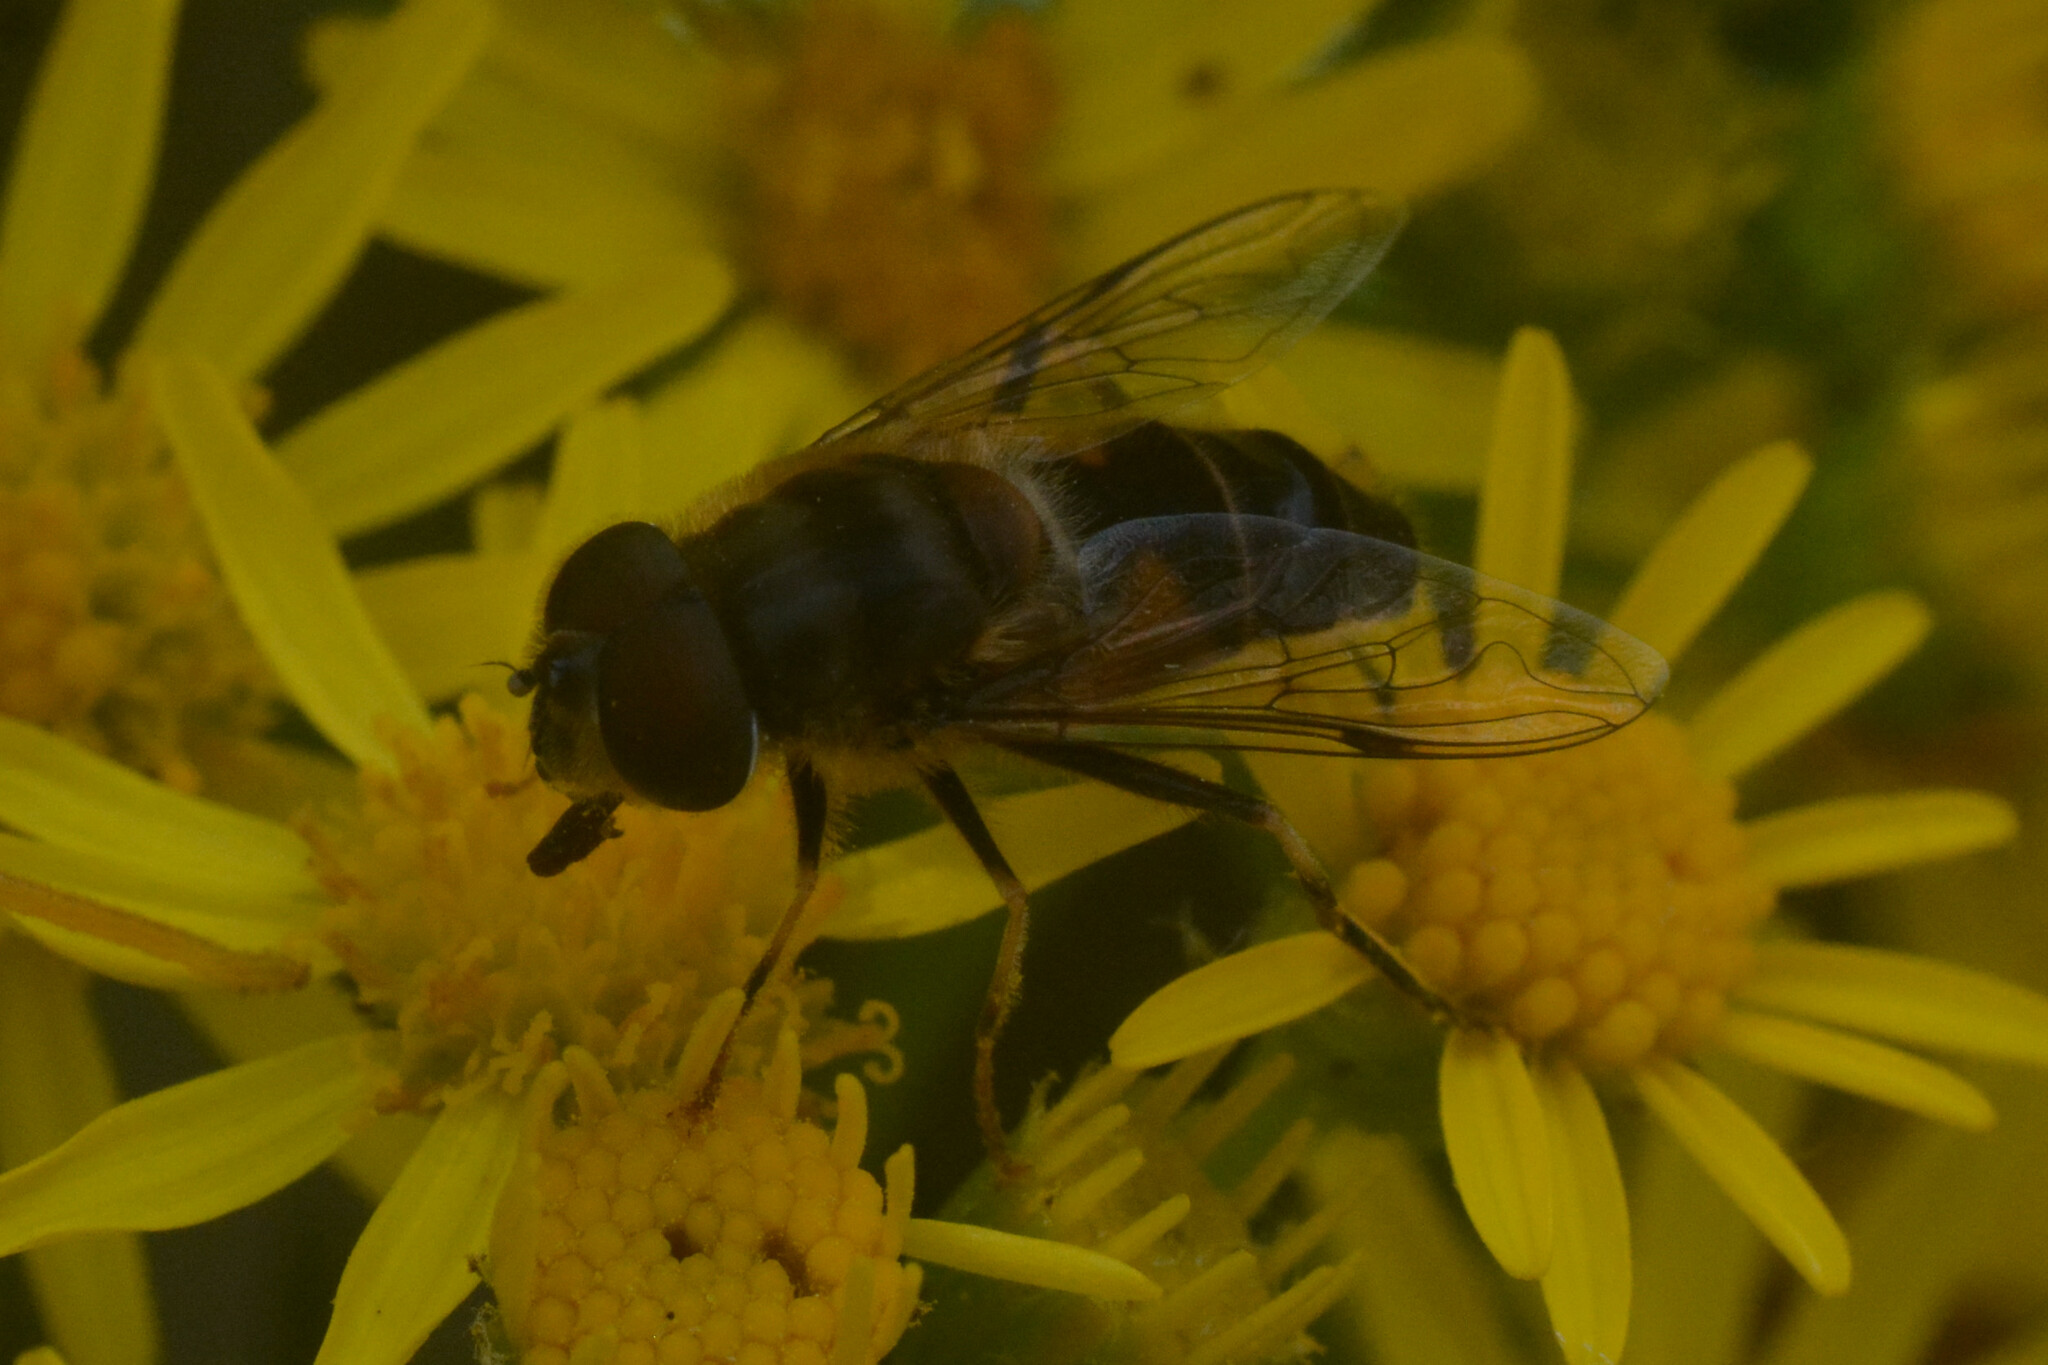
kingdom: Animalia
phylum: Arthropoda
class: Insecta
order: Diptera
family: Syrphidae
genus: Eristalis
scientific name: Eristalis pertinax
